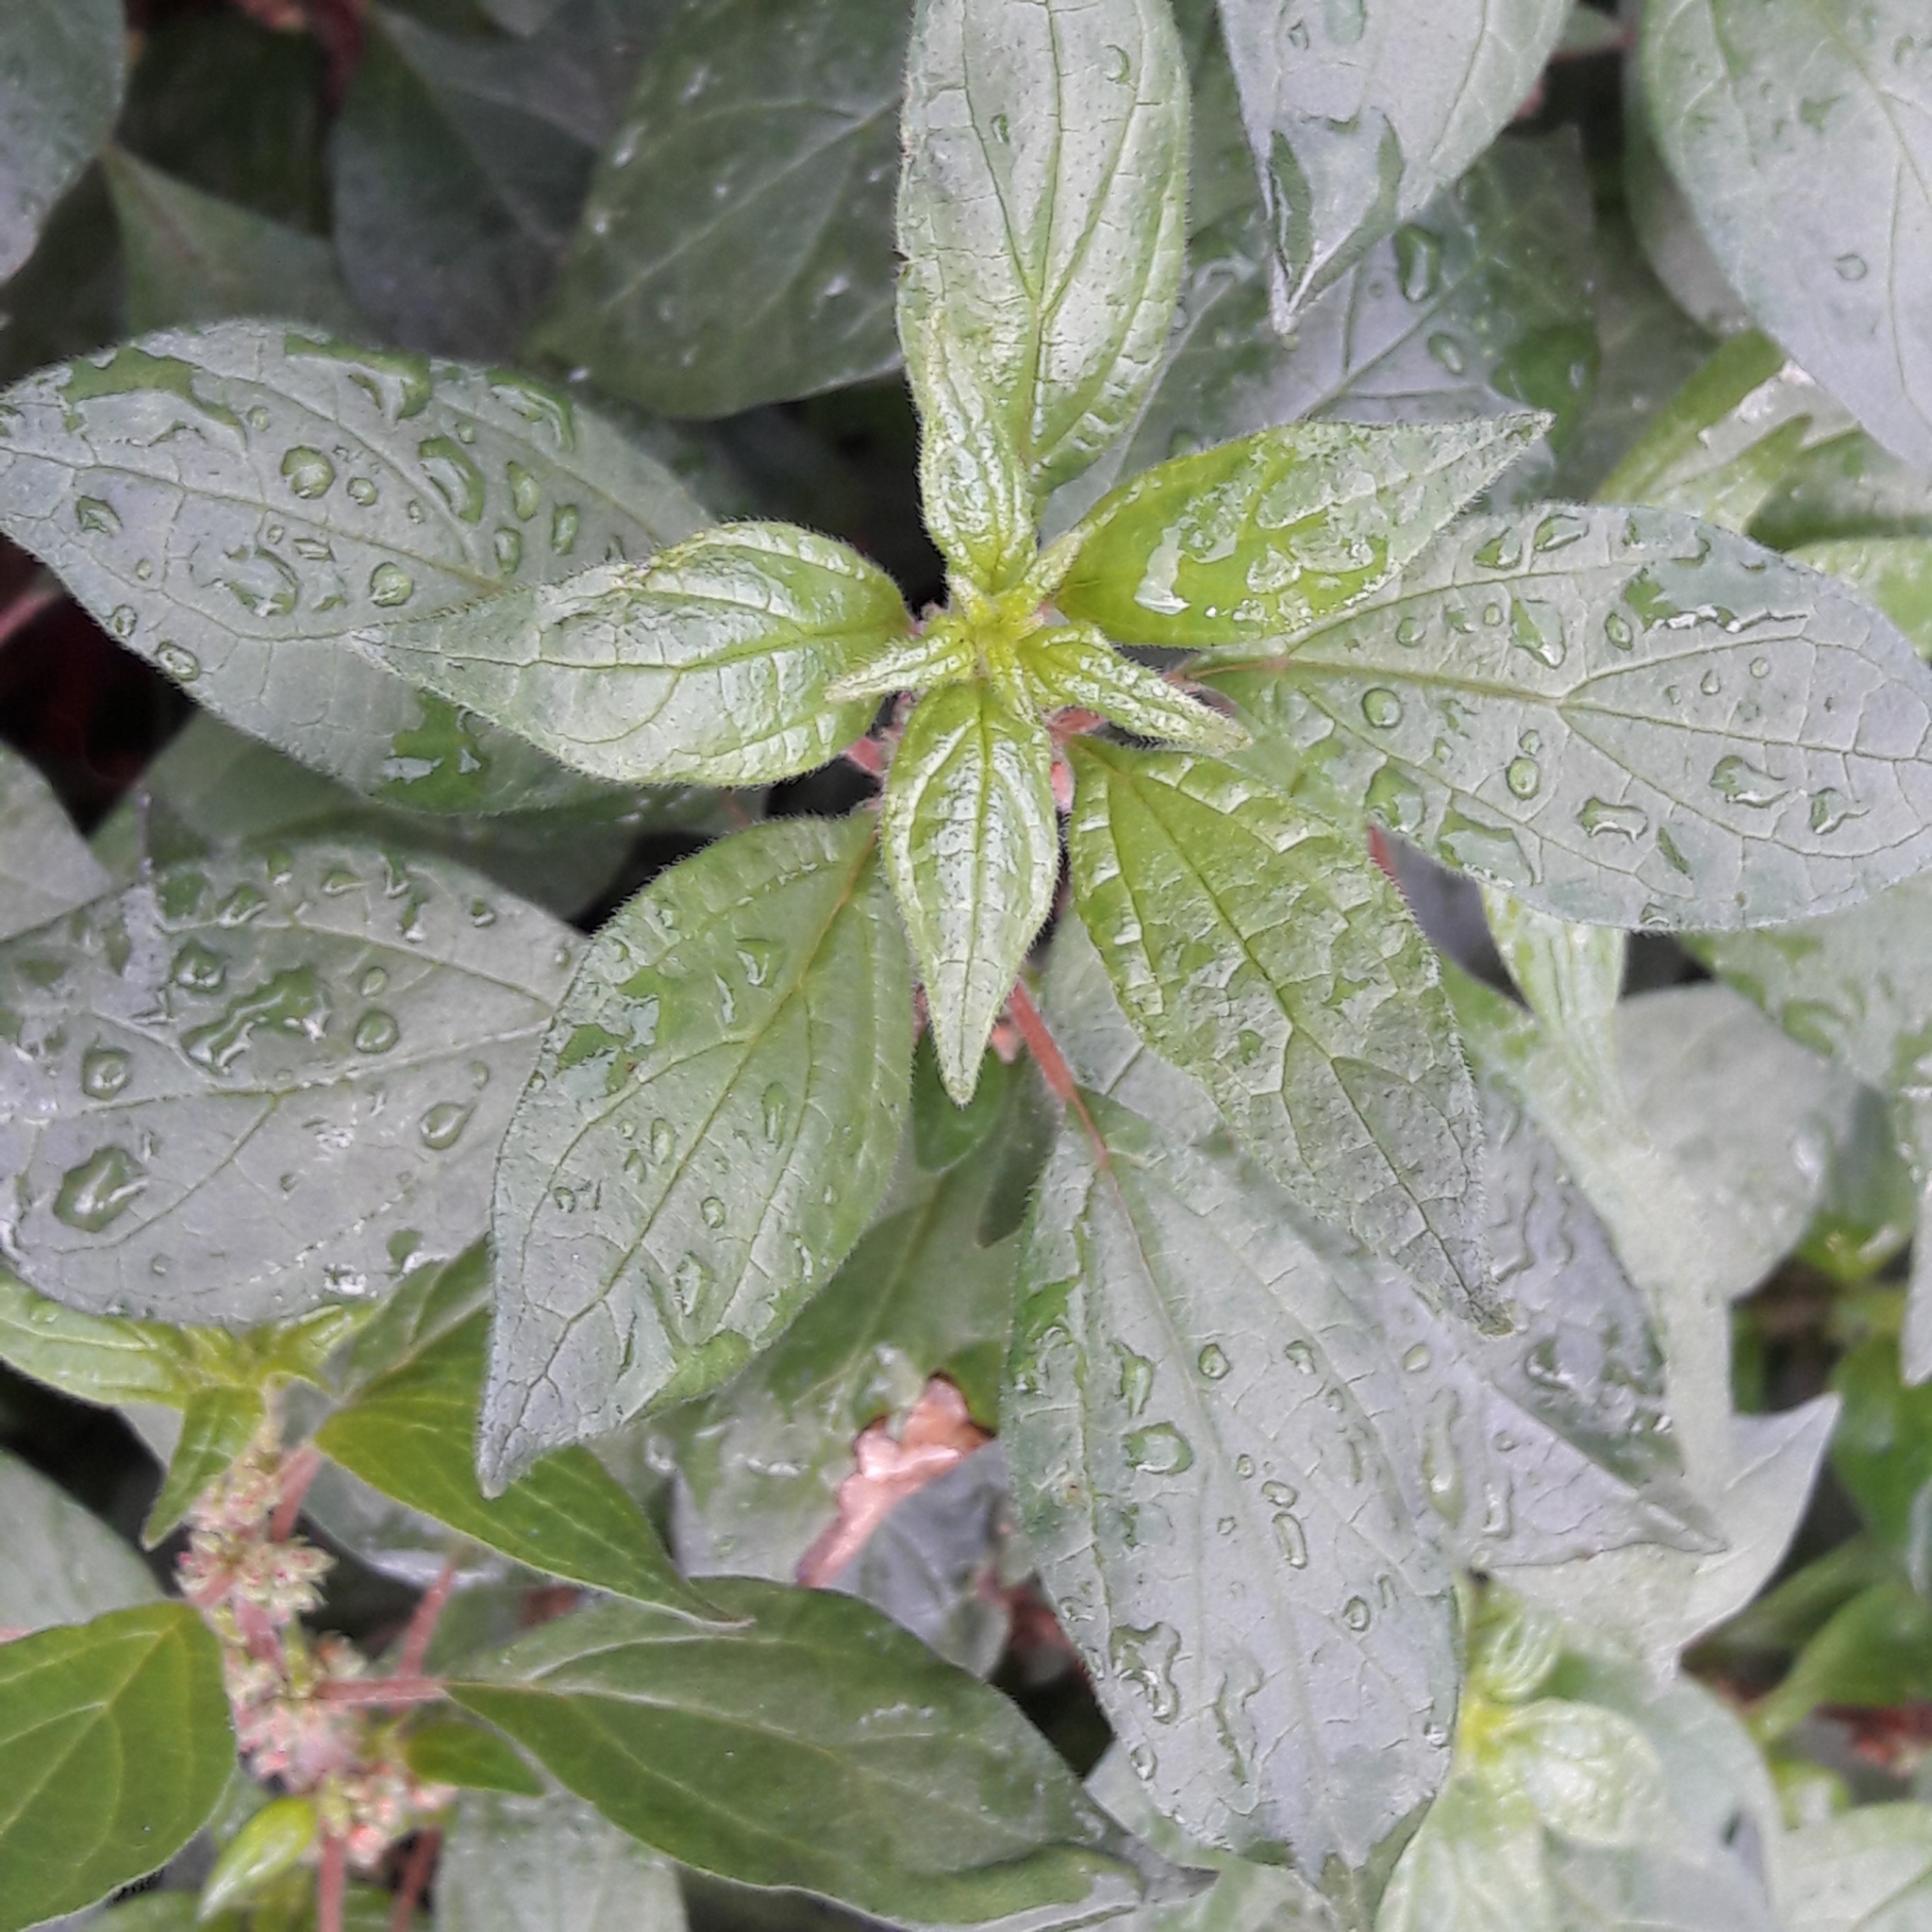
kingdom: Plantae
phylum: Tracheophyta
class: Magnoliopsida
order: Rosales
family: Urticaceae
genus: Parietaria
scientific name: Parietaria judaica
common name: Pellitory-of-the-wall
